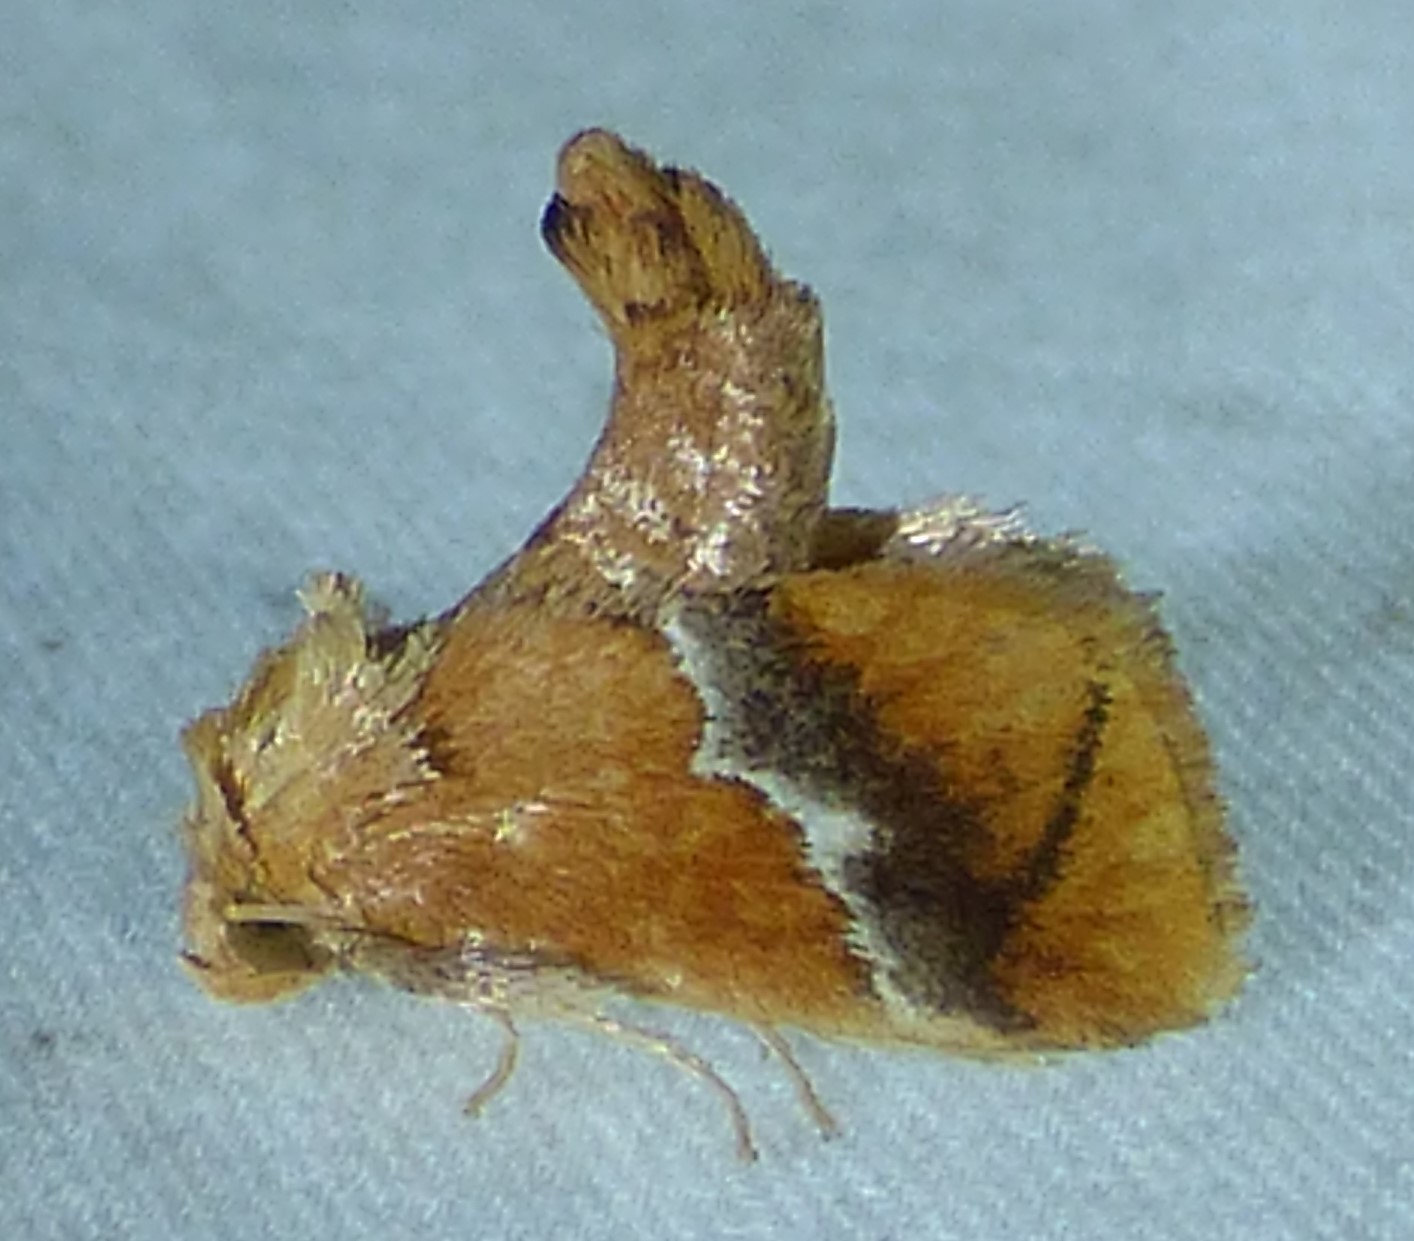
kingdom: Animalia
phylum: Arthropoda
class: Insecta
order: Lepidoptera
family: Limacodidae
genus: Lithacodes
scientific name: Lithacodes fasciola
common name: Yellow-shouldered slug moth
